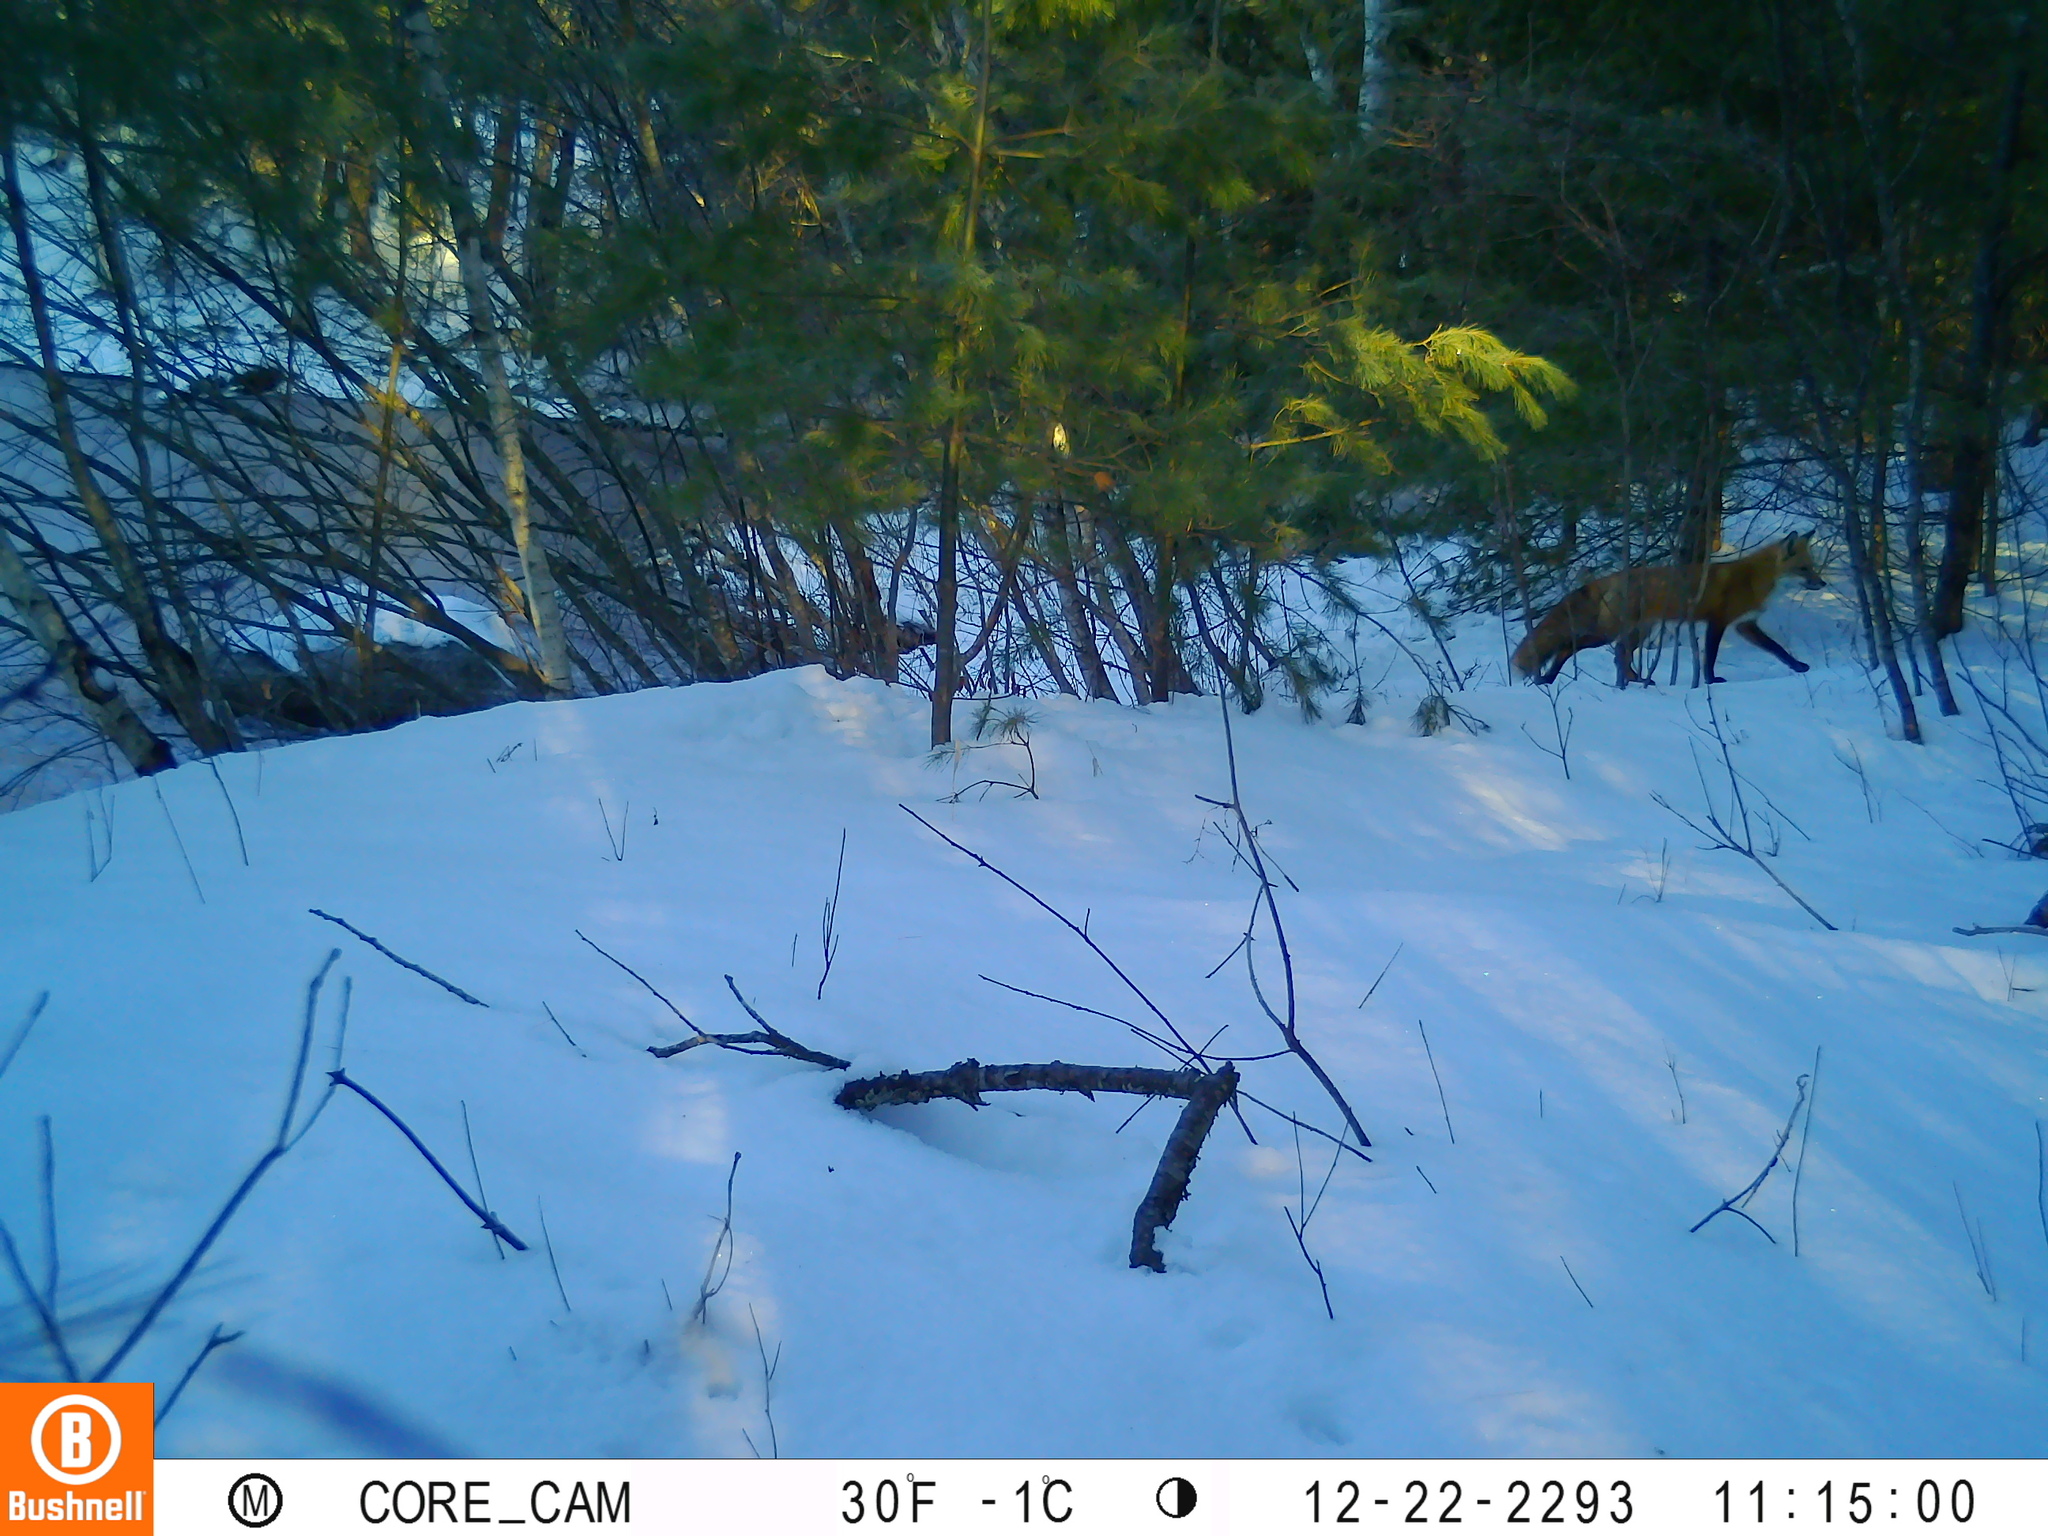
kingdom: Animalia
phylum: Chordata
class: Mammalia
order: Carnivora
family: Canidae
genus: Vulpes
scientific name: Vulpes vulpes
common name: Red fox
